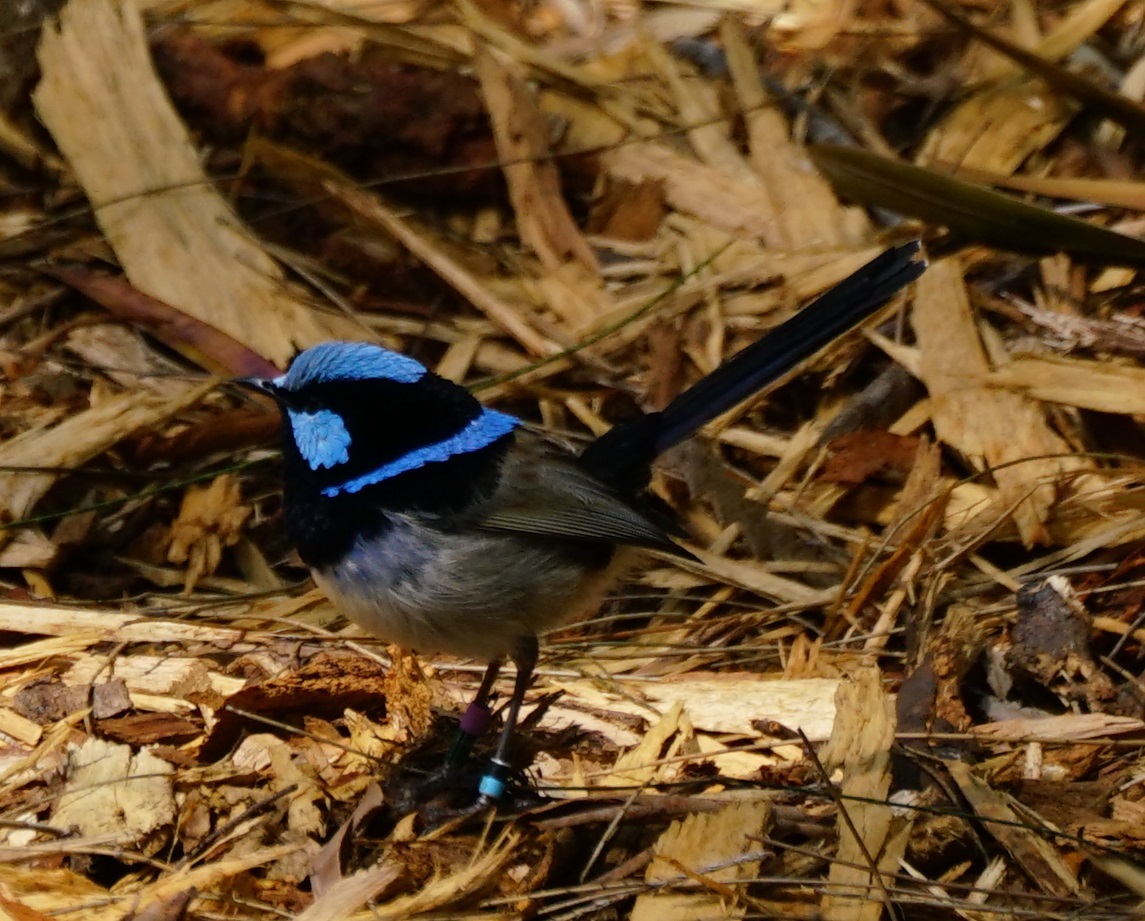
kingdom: Animalia
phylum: Chordata
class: Aves
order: Passeriformes
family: Maluridae
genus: Malurus
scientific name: Malurus cyaneus
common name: Superb fairywren
